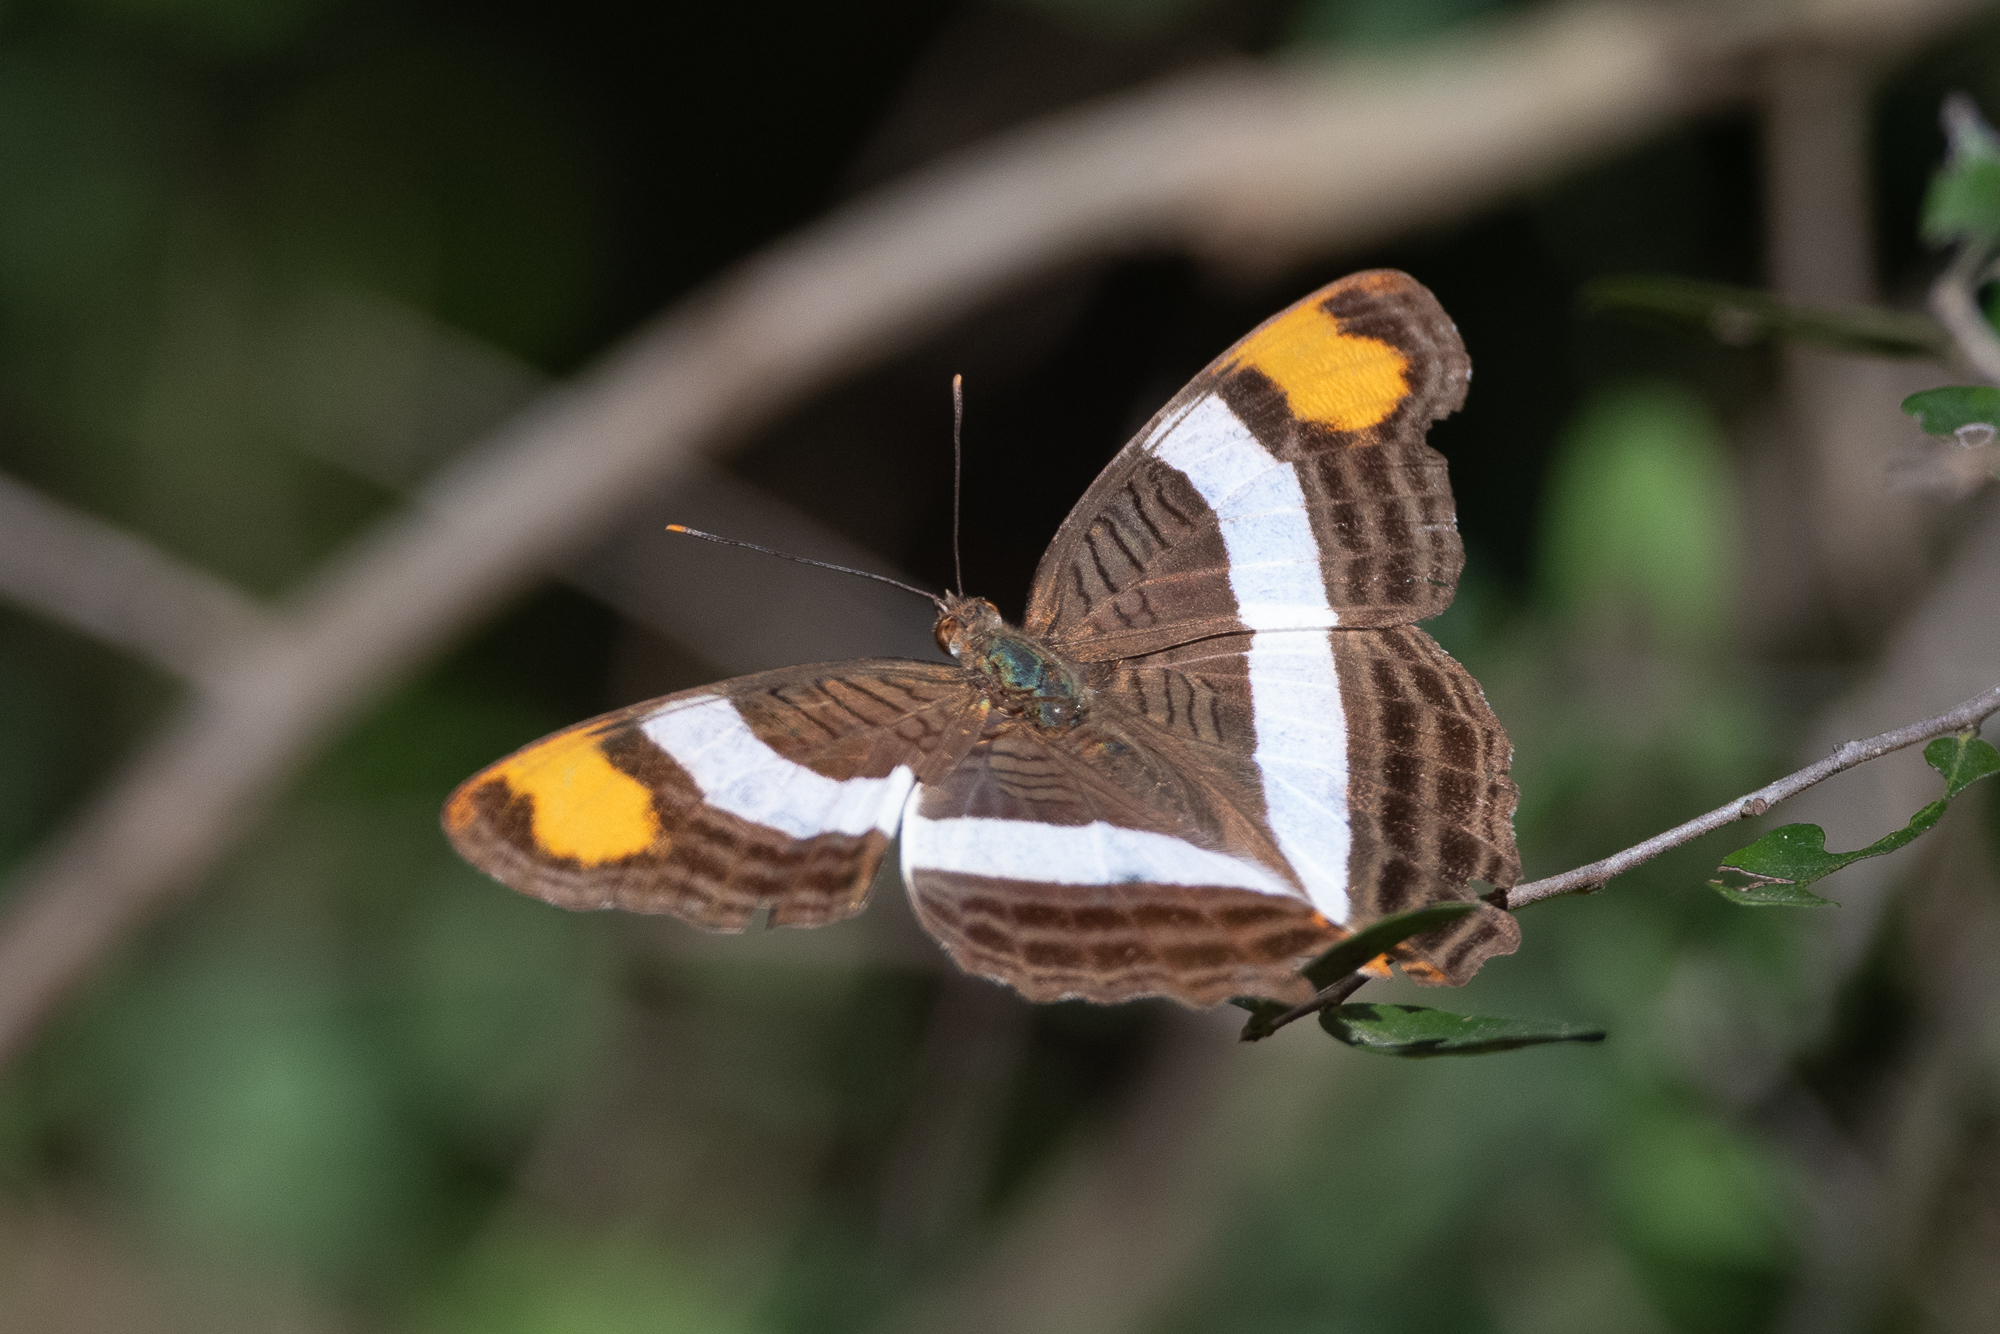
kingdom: Animalia
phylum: Arthropoda
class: Insecta
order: Lepidoptera
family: Nymphalidae
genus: Limenitis
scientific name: Limenitis fessonia
